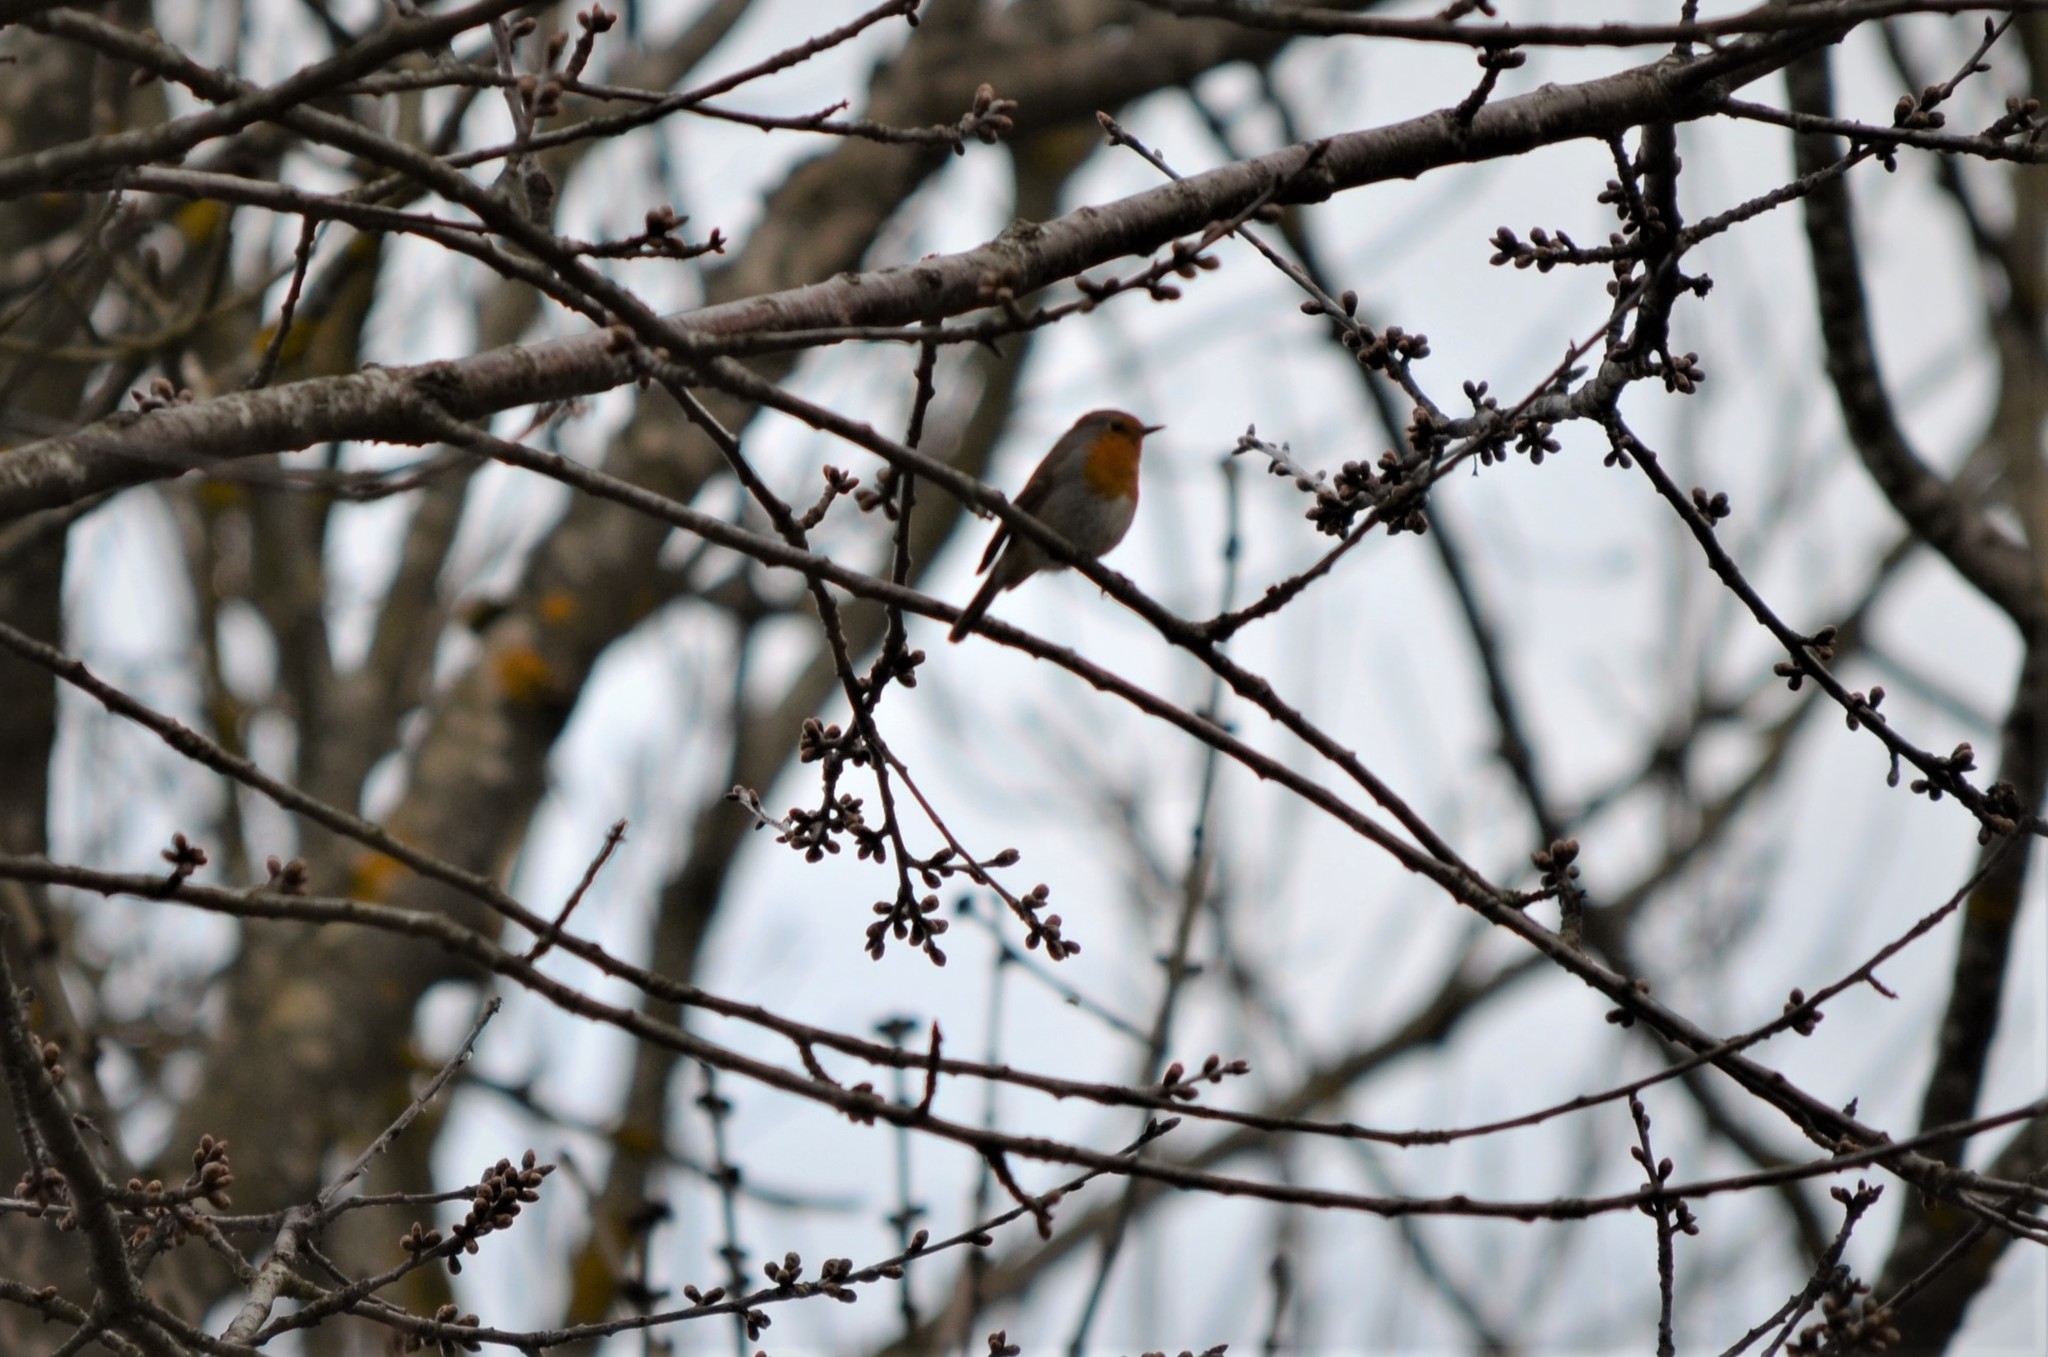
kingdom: Animalia
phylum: Chordata
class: Aves
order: Passeriformes
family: Muscicapidae
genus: Erithacus
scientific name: Erithacus rubecula
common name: European robin
